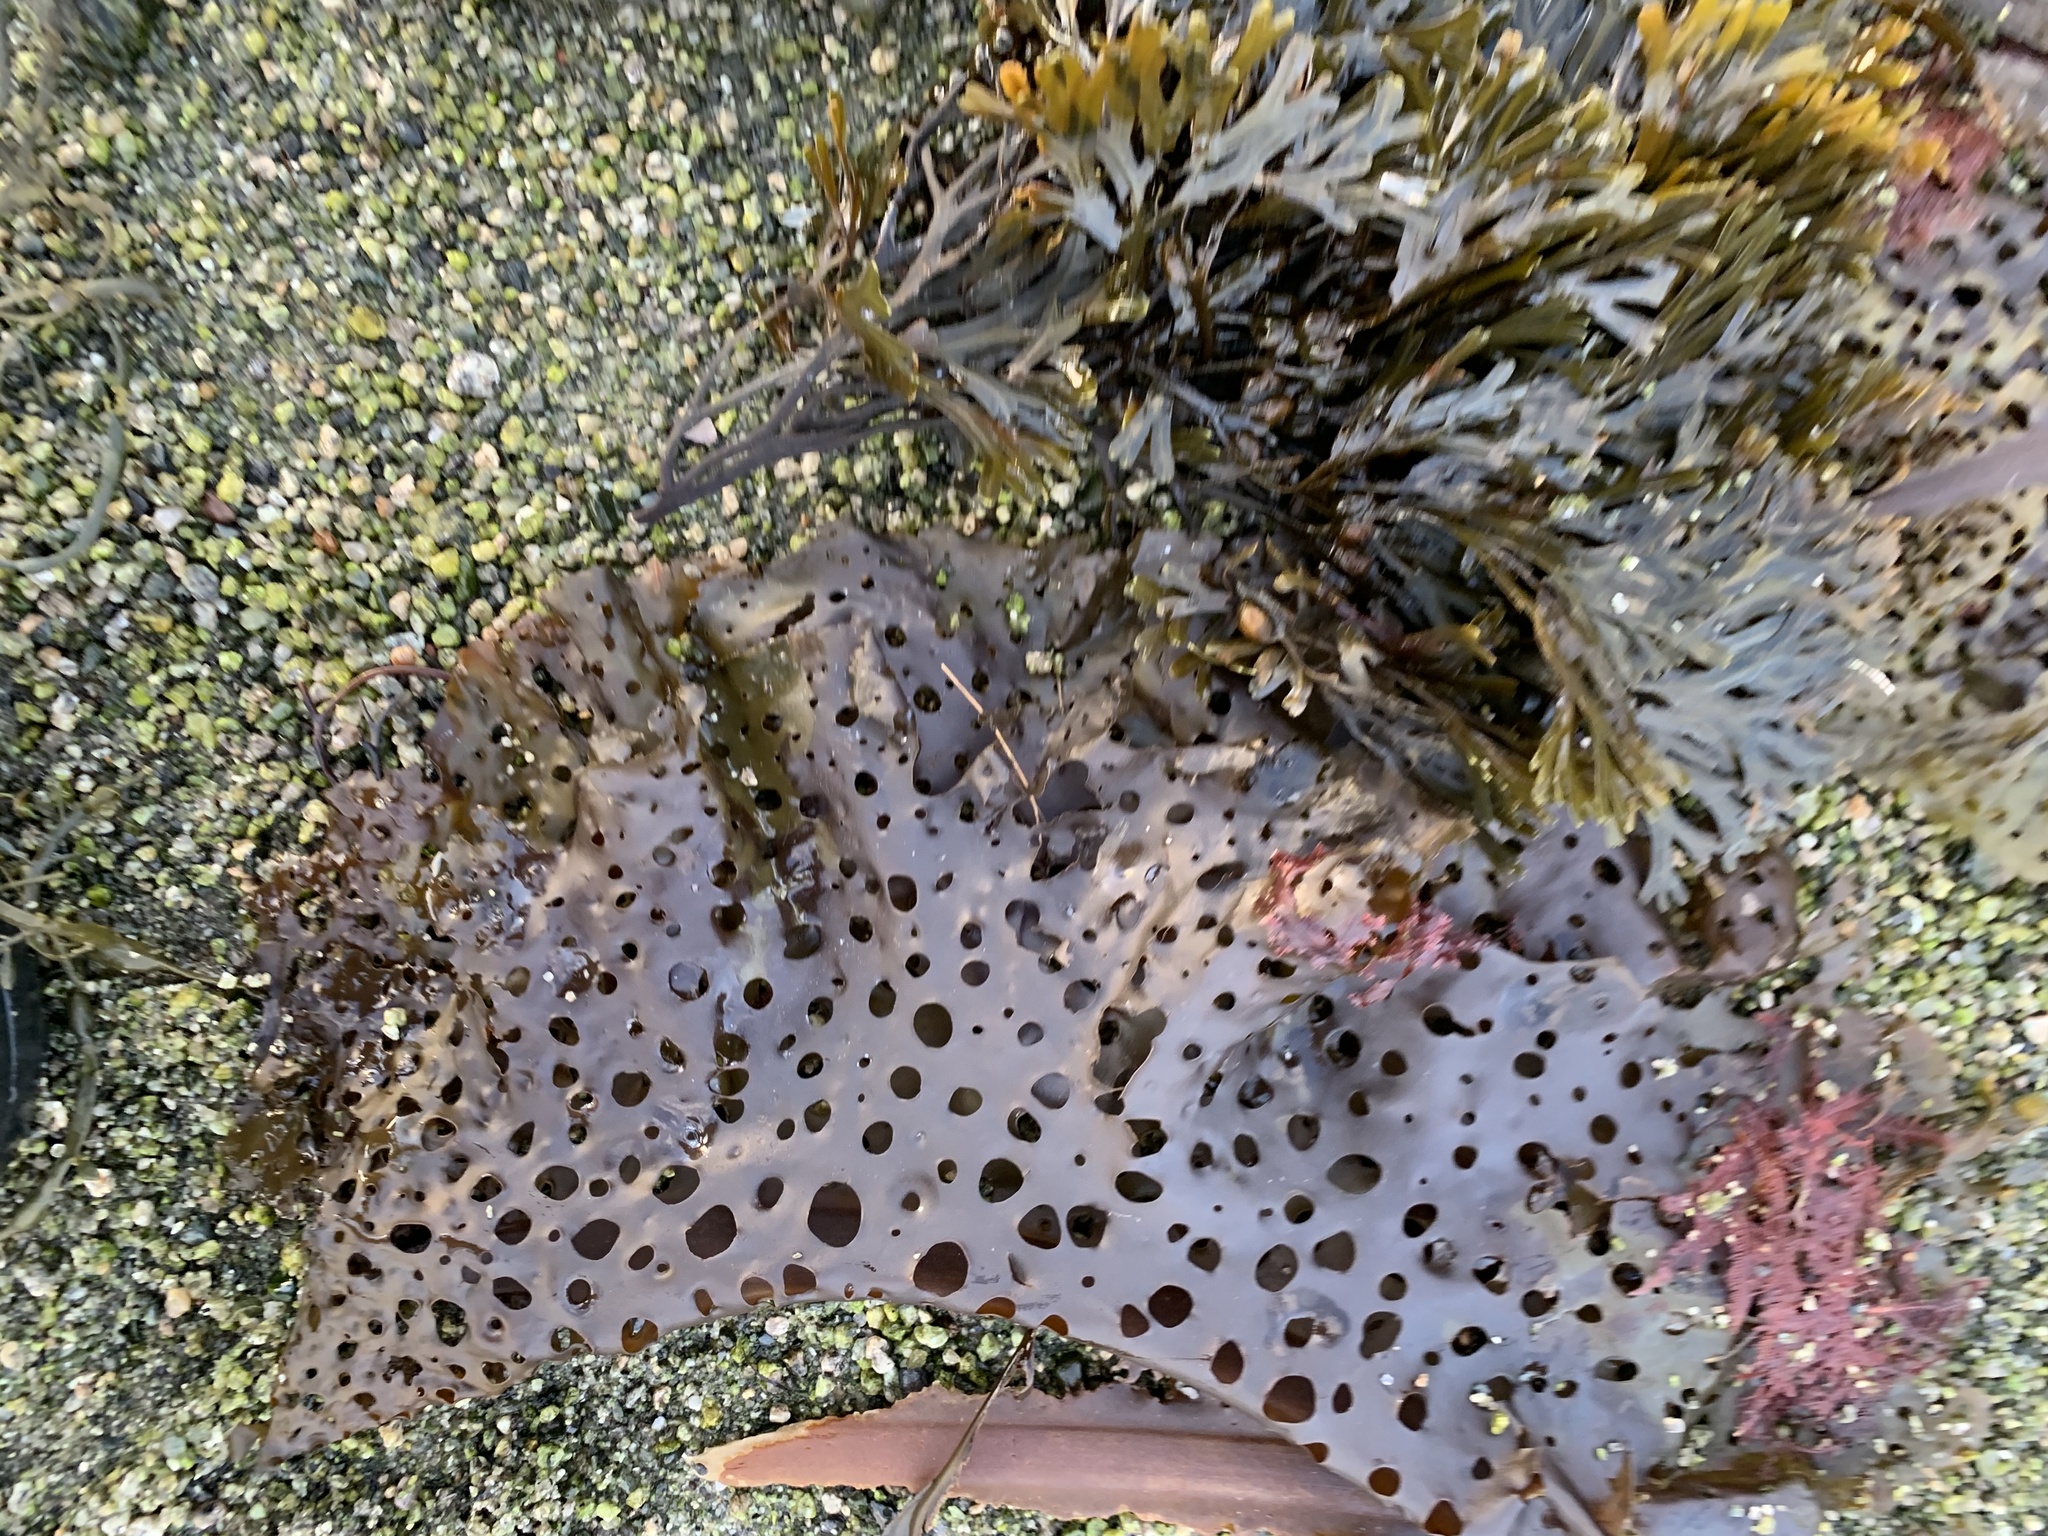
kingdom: Chromista
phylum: Ochrophyta
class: Phaeophyceae
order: Laminariales
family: Costariaceae
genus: Agarum
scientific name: Agarum clathratum
